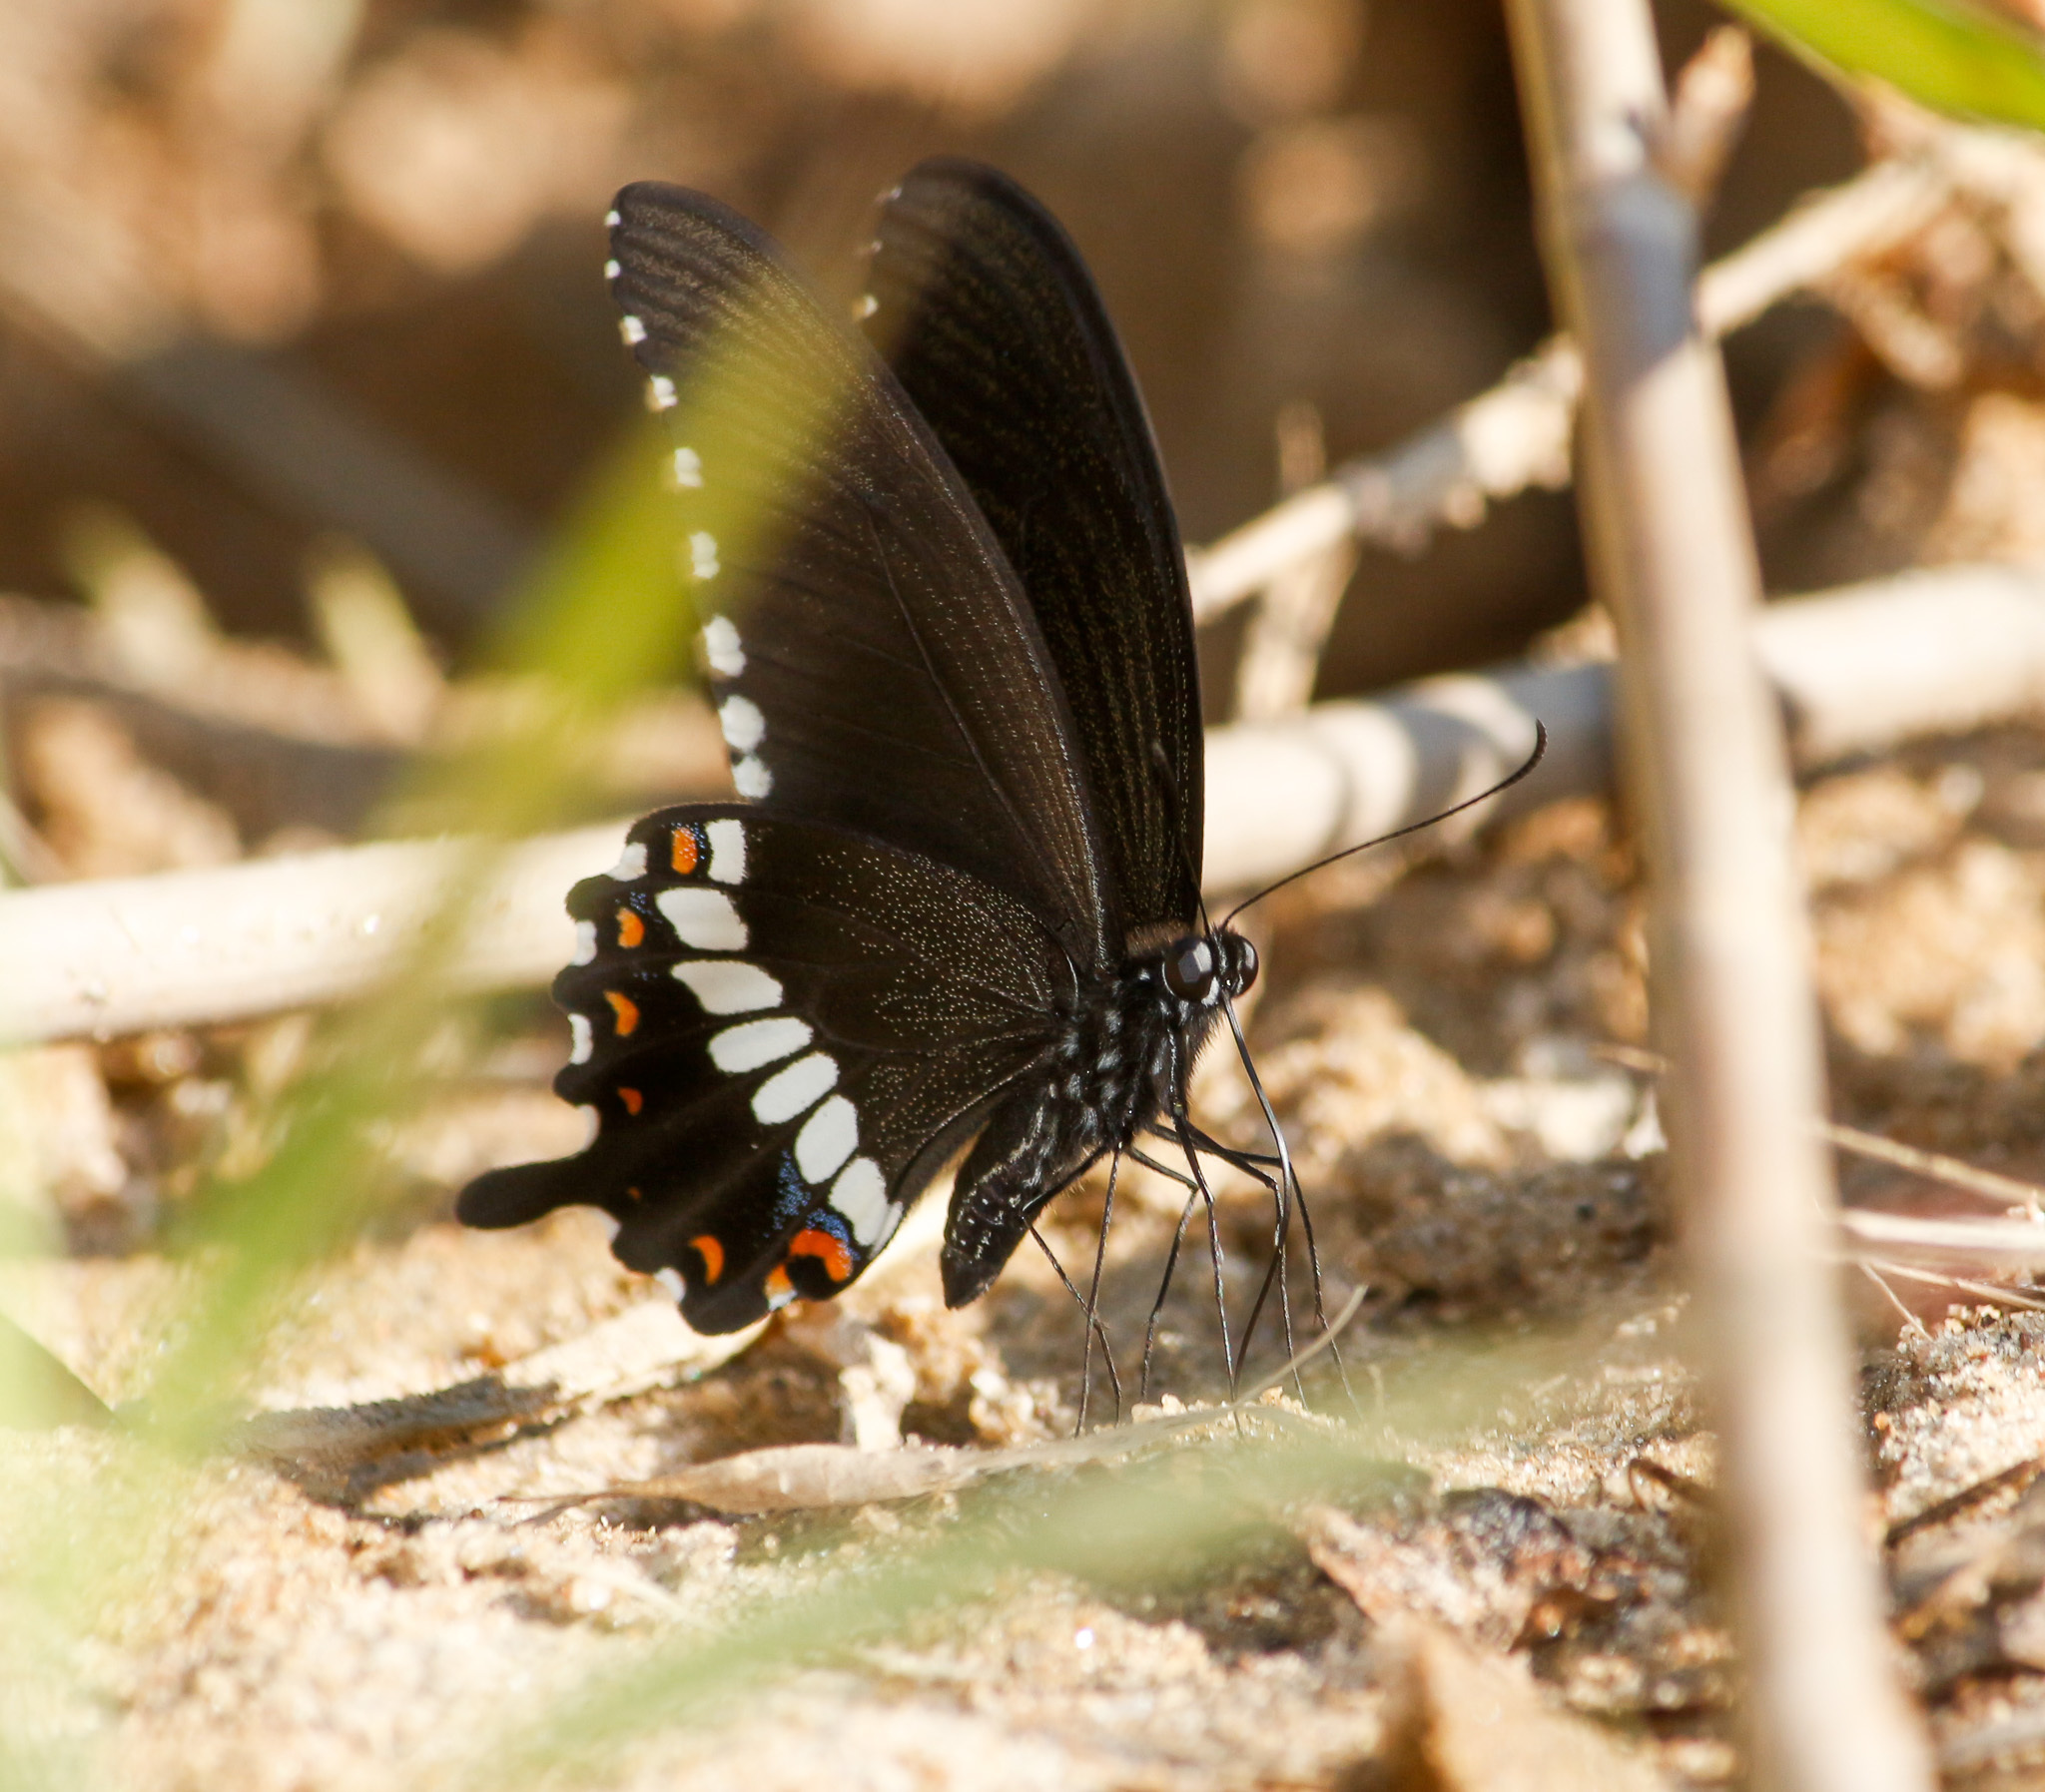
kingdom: Animalia
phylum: Arthropoda
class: Insecta
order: Lepidoptera
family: Papilionidae
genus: Papilio
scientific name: Papilio polytes
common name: Common mormon
